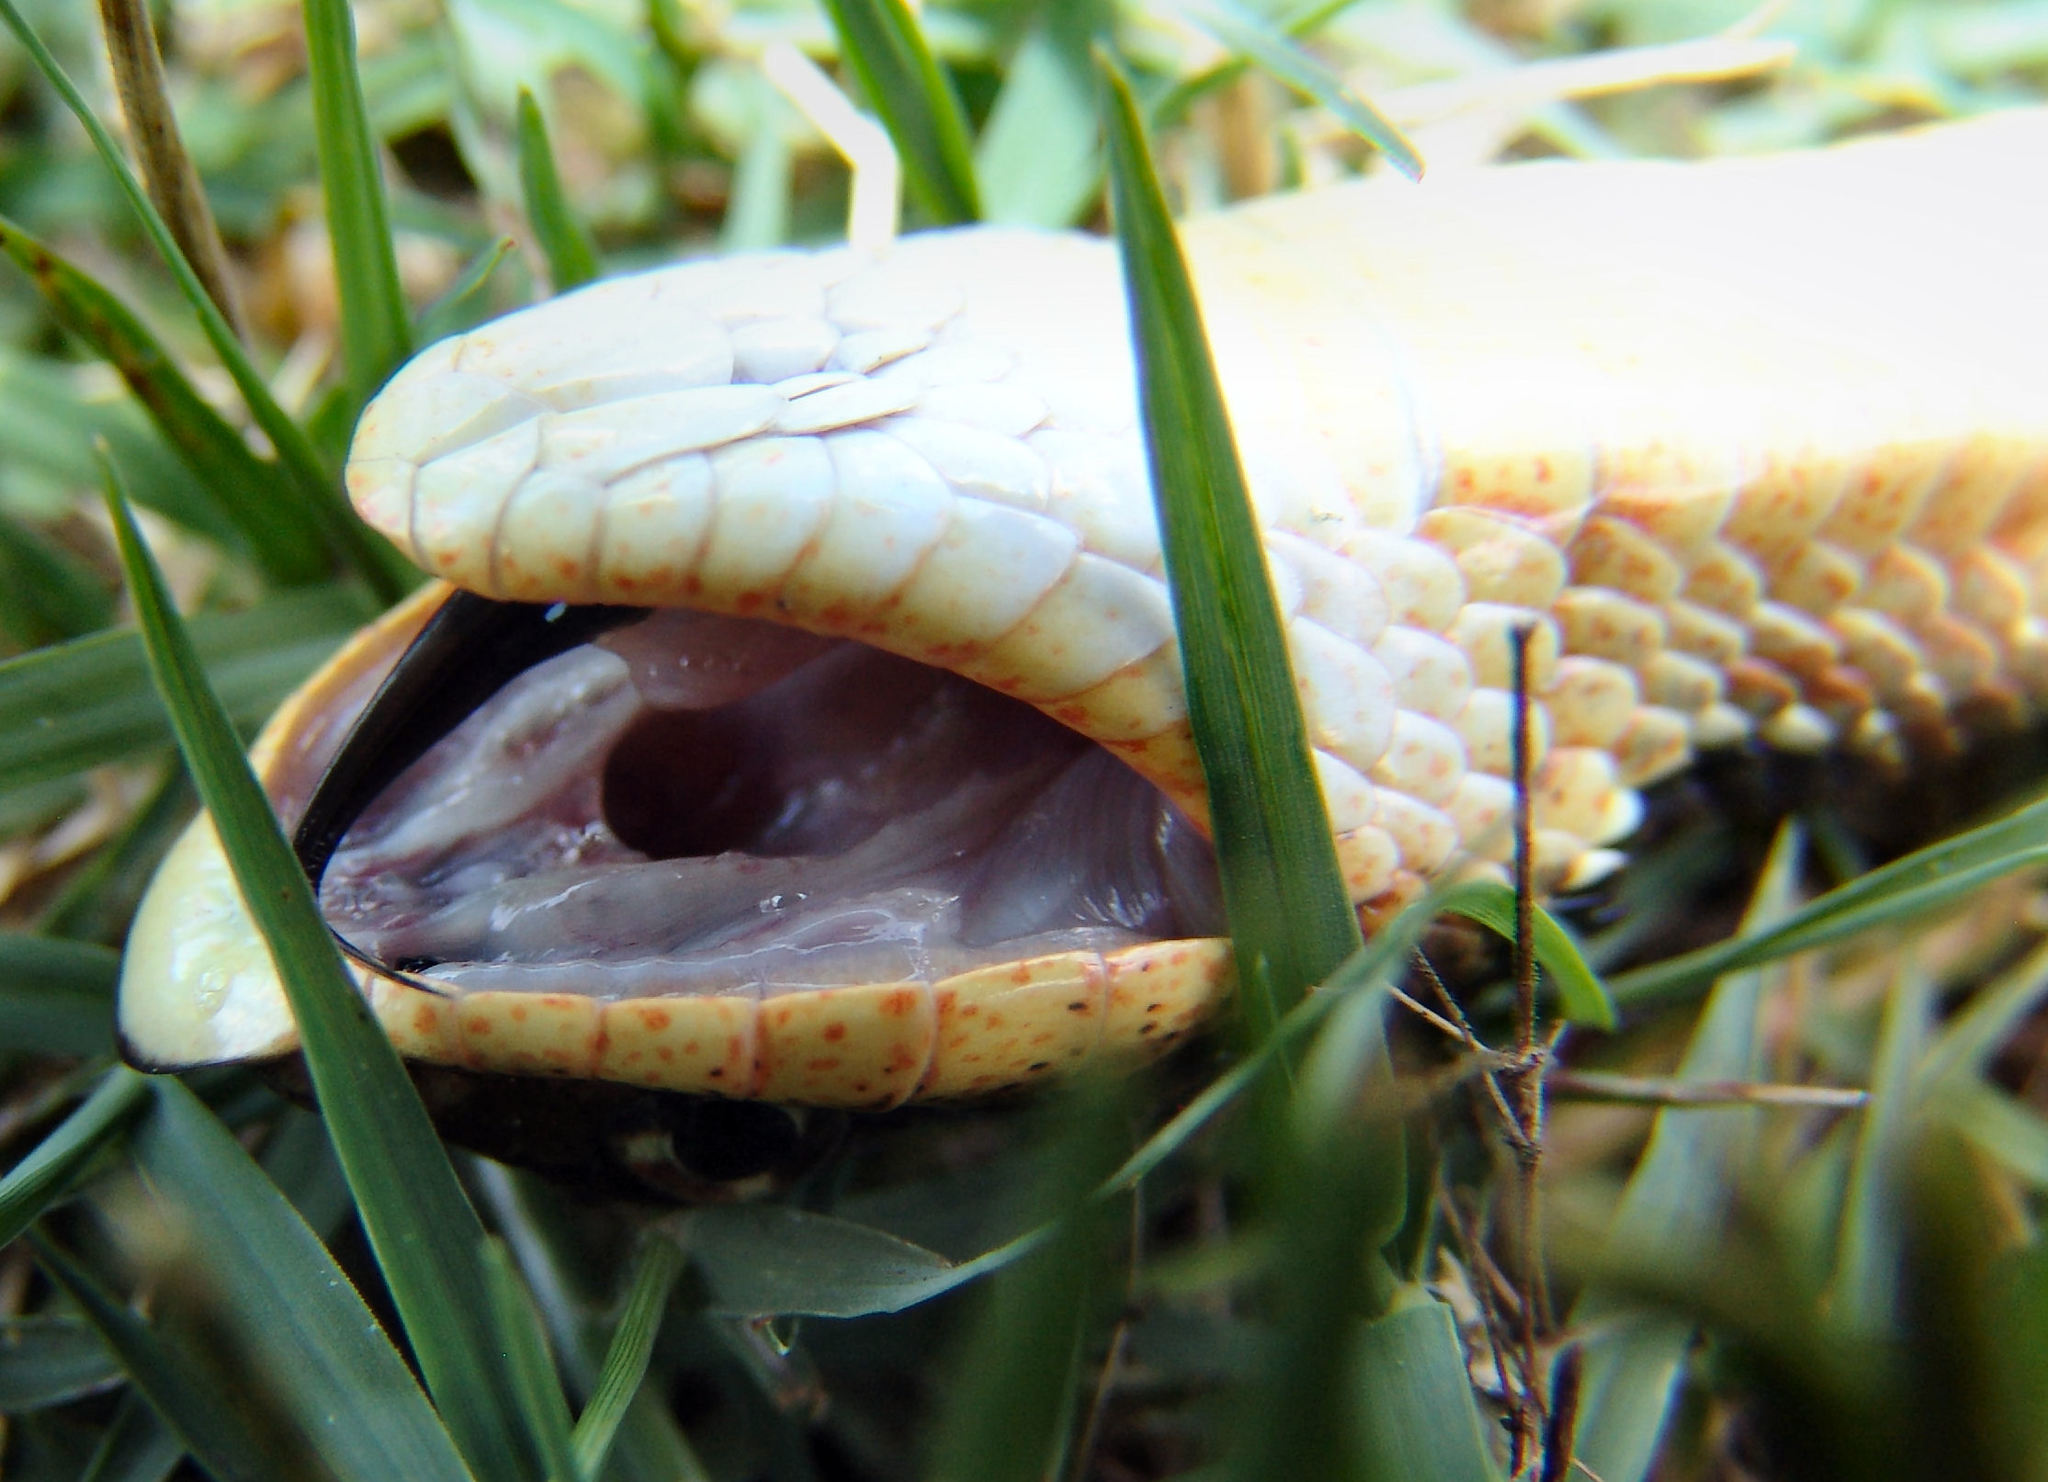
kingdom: Animalia
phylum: Chordata
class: Squamata
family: Colubridae
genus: Heterodon
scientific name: Heterodon platirhinos
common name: Eastern hognose snake
